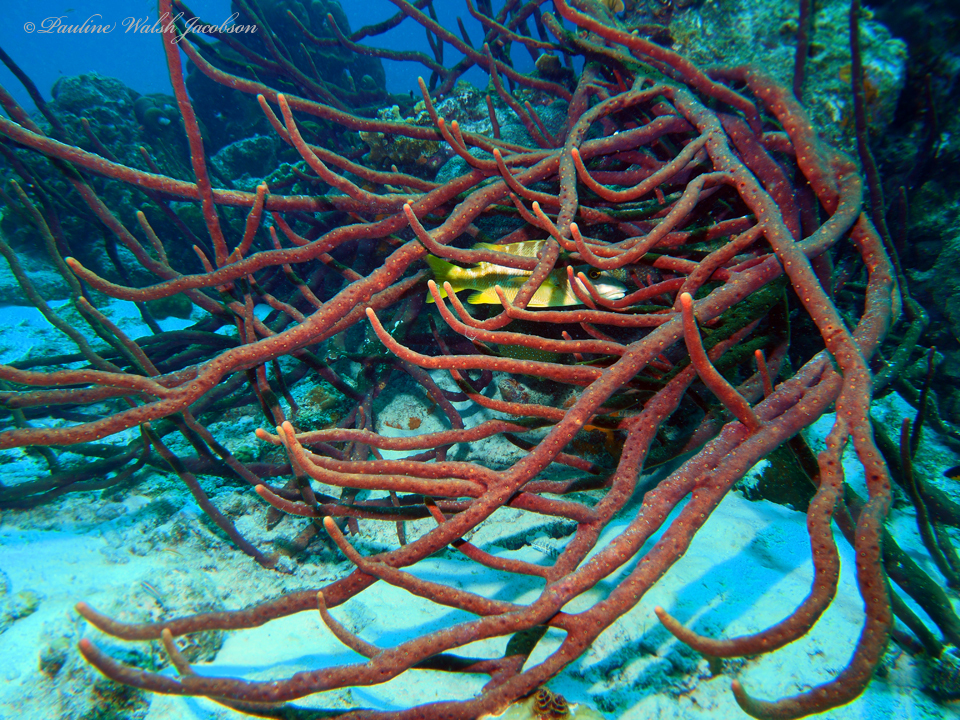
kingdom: Animalia
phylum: Porifera
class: Demospongiae
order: Verongiida
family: Aplysinidae
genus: Aplysina
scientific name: Aplysina cauliformis
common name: Branching candle sponge
